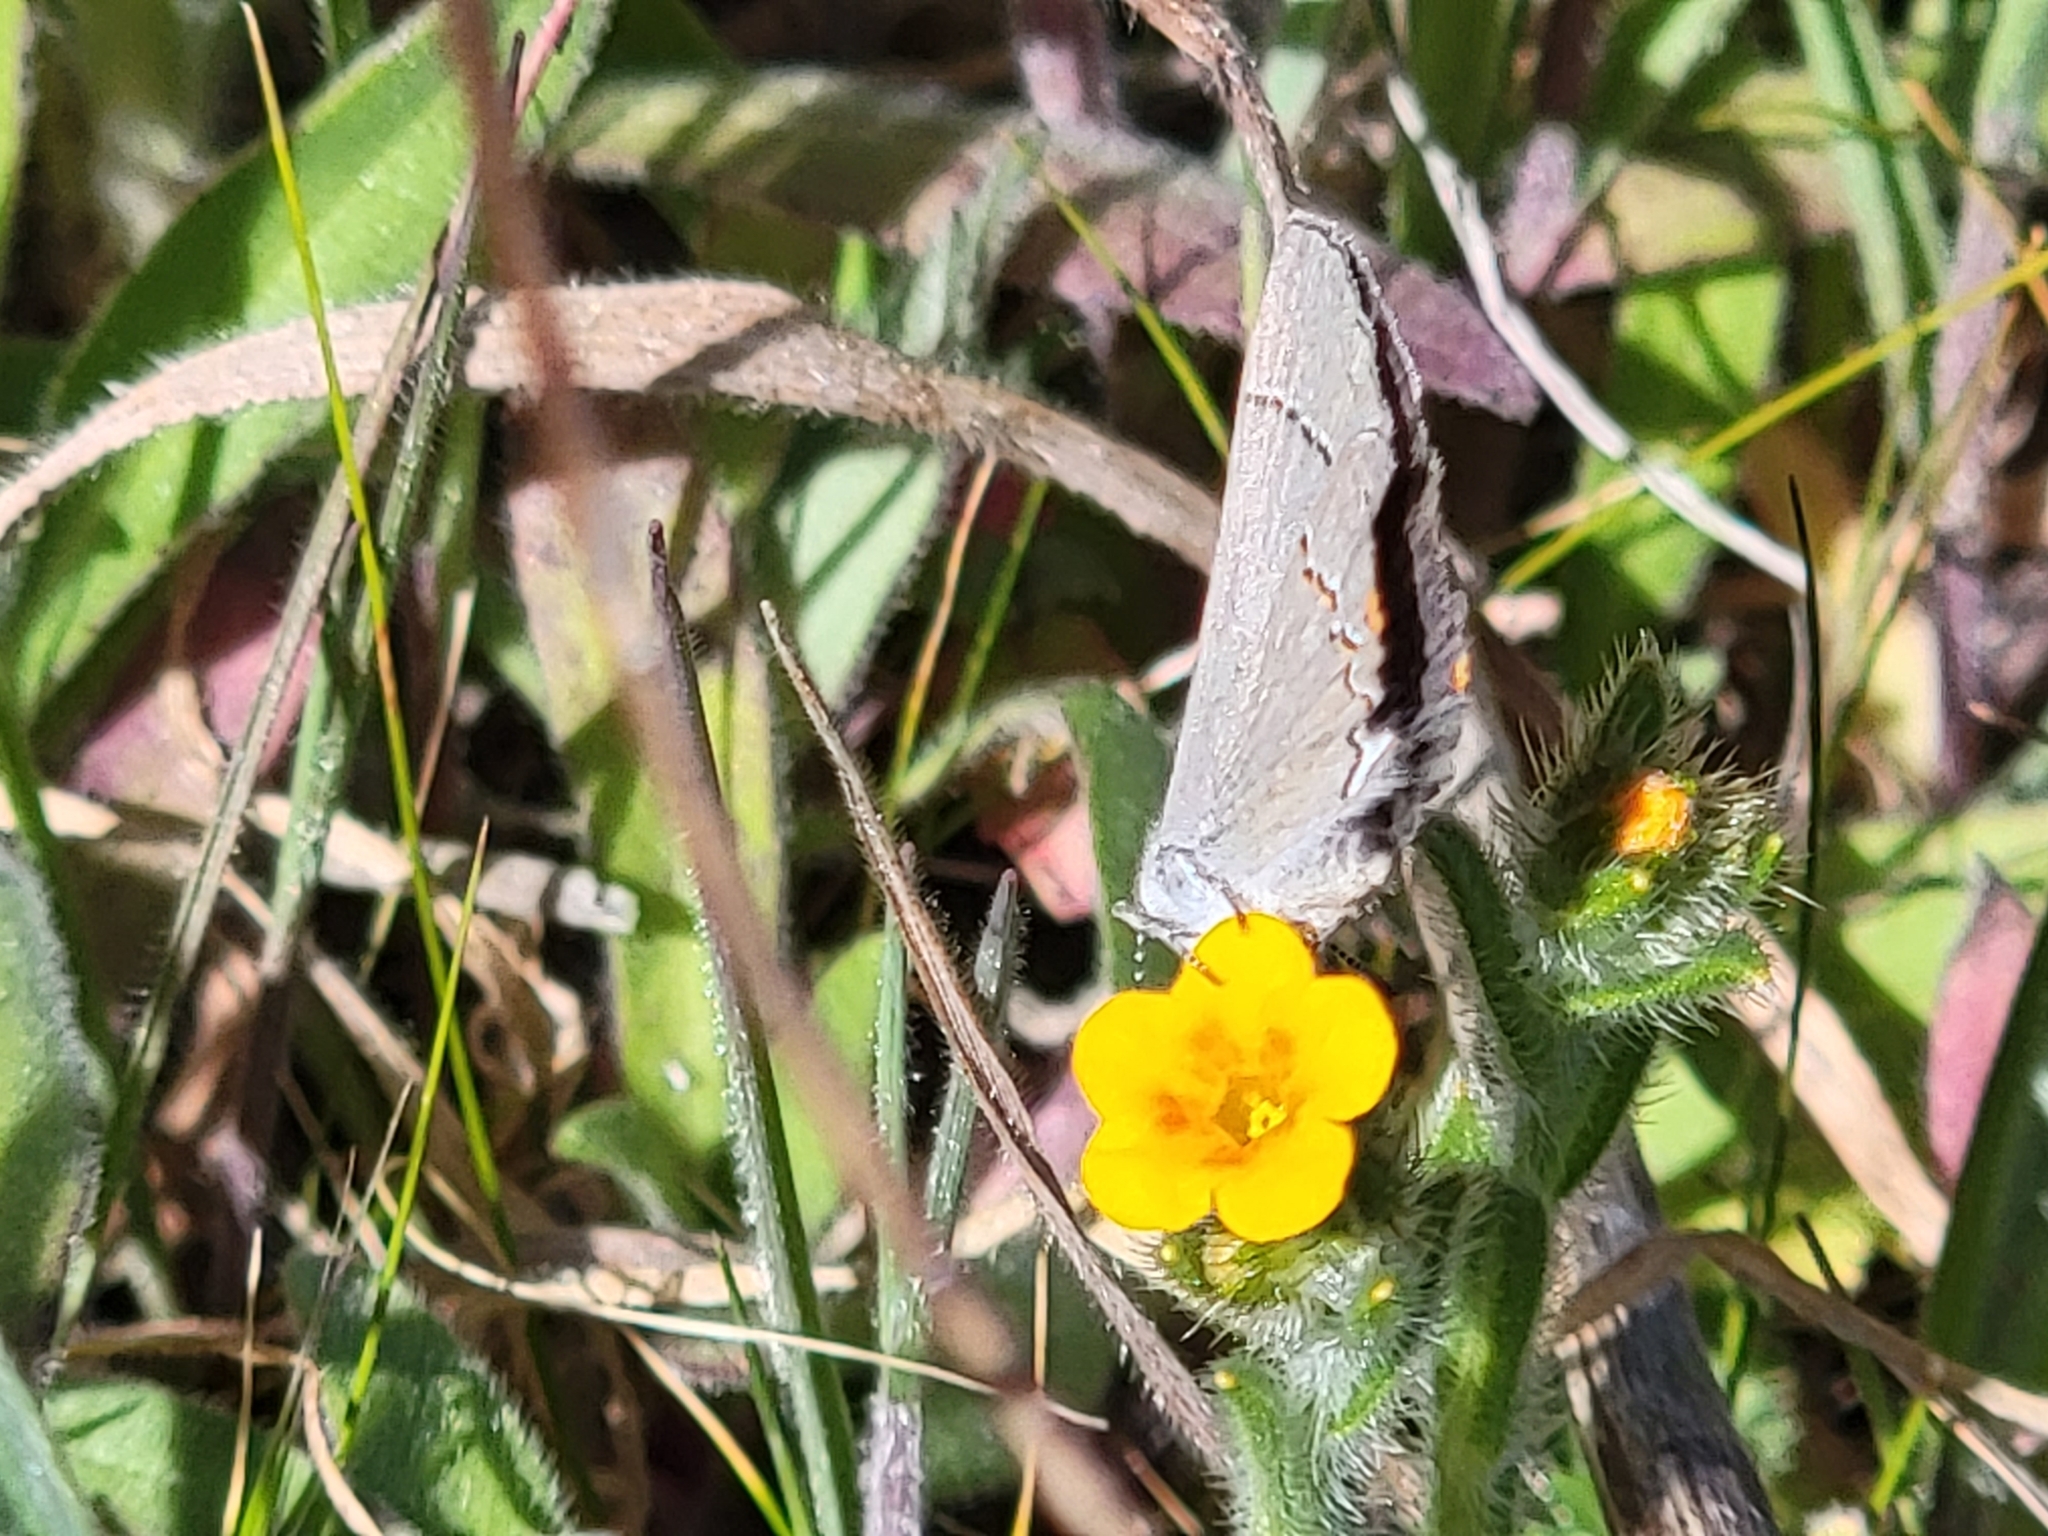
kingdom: Animalia
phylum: Arthropoda
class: Insecta
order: Lepidoptera
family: Lycaenidae
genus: Strymon
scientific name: Strymon melinus
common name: Gray hairstreak
